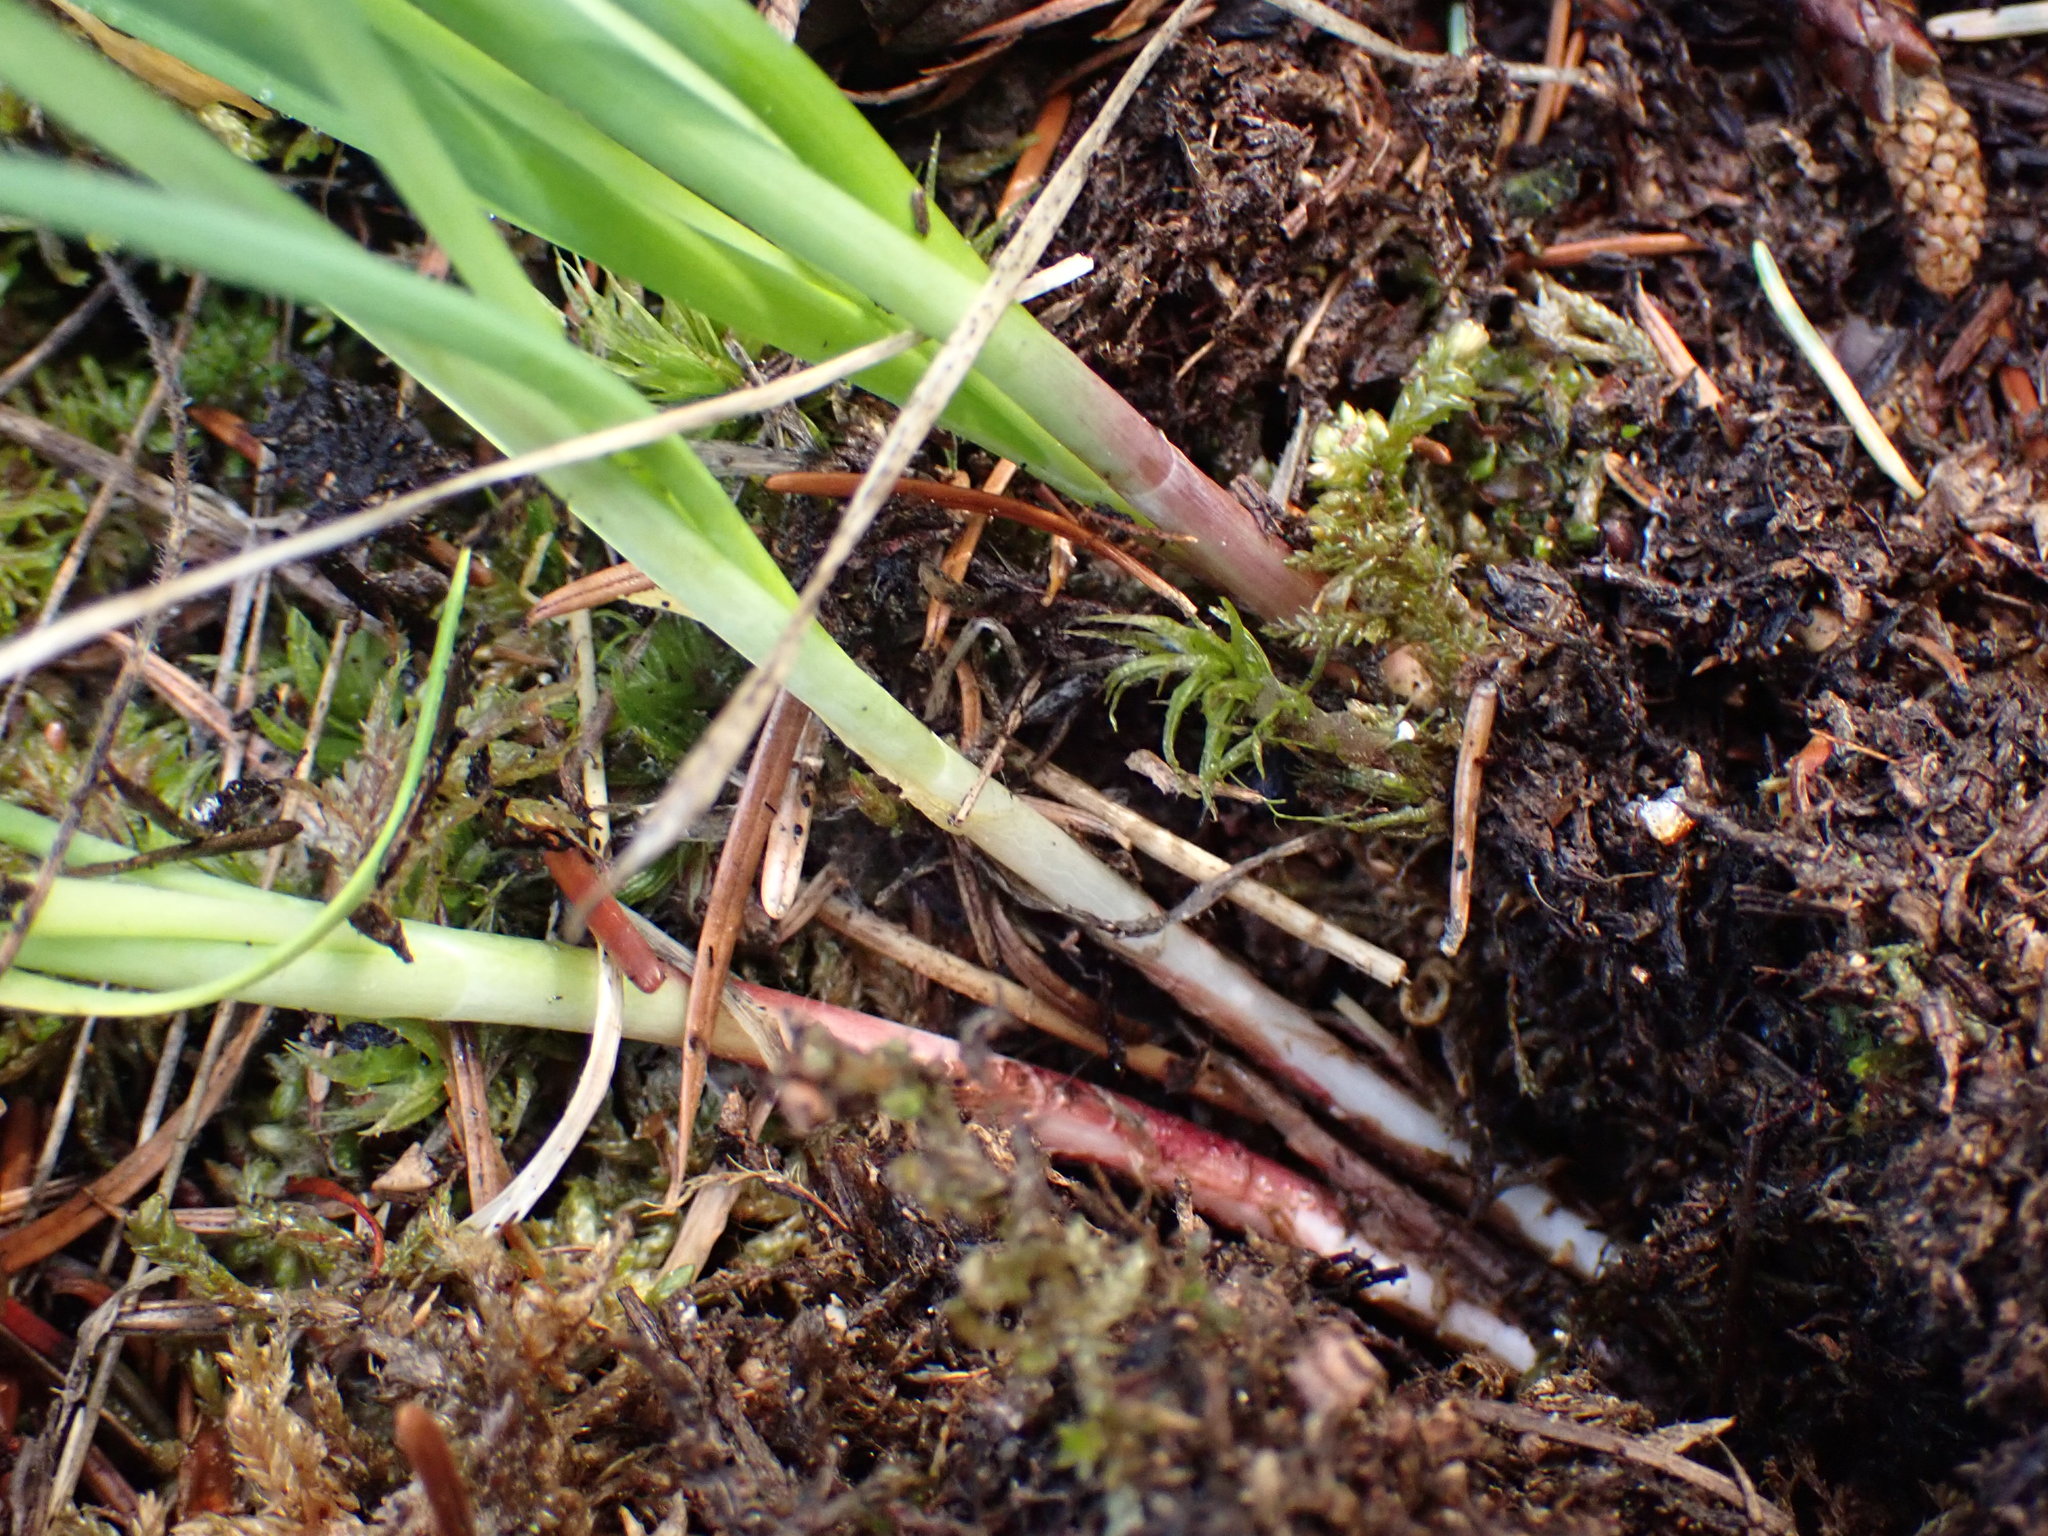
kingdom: Plantae
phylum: Tracheophyta
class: Liliopsida
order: Asparagales
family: Amaryllidaceae
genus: Allium
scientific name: Allium cernuum
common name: Nodding onion
